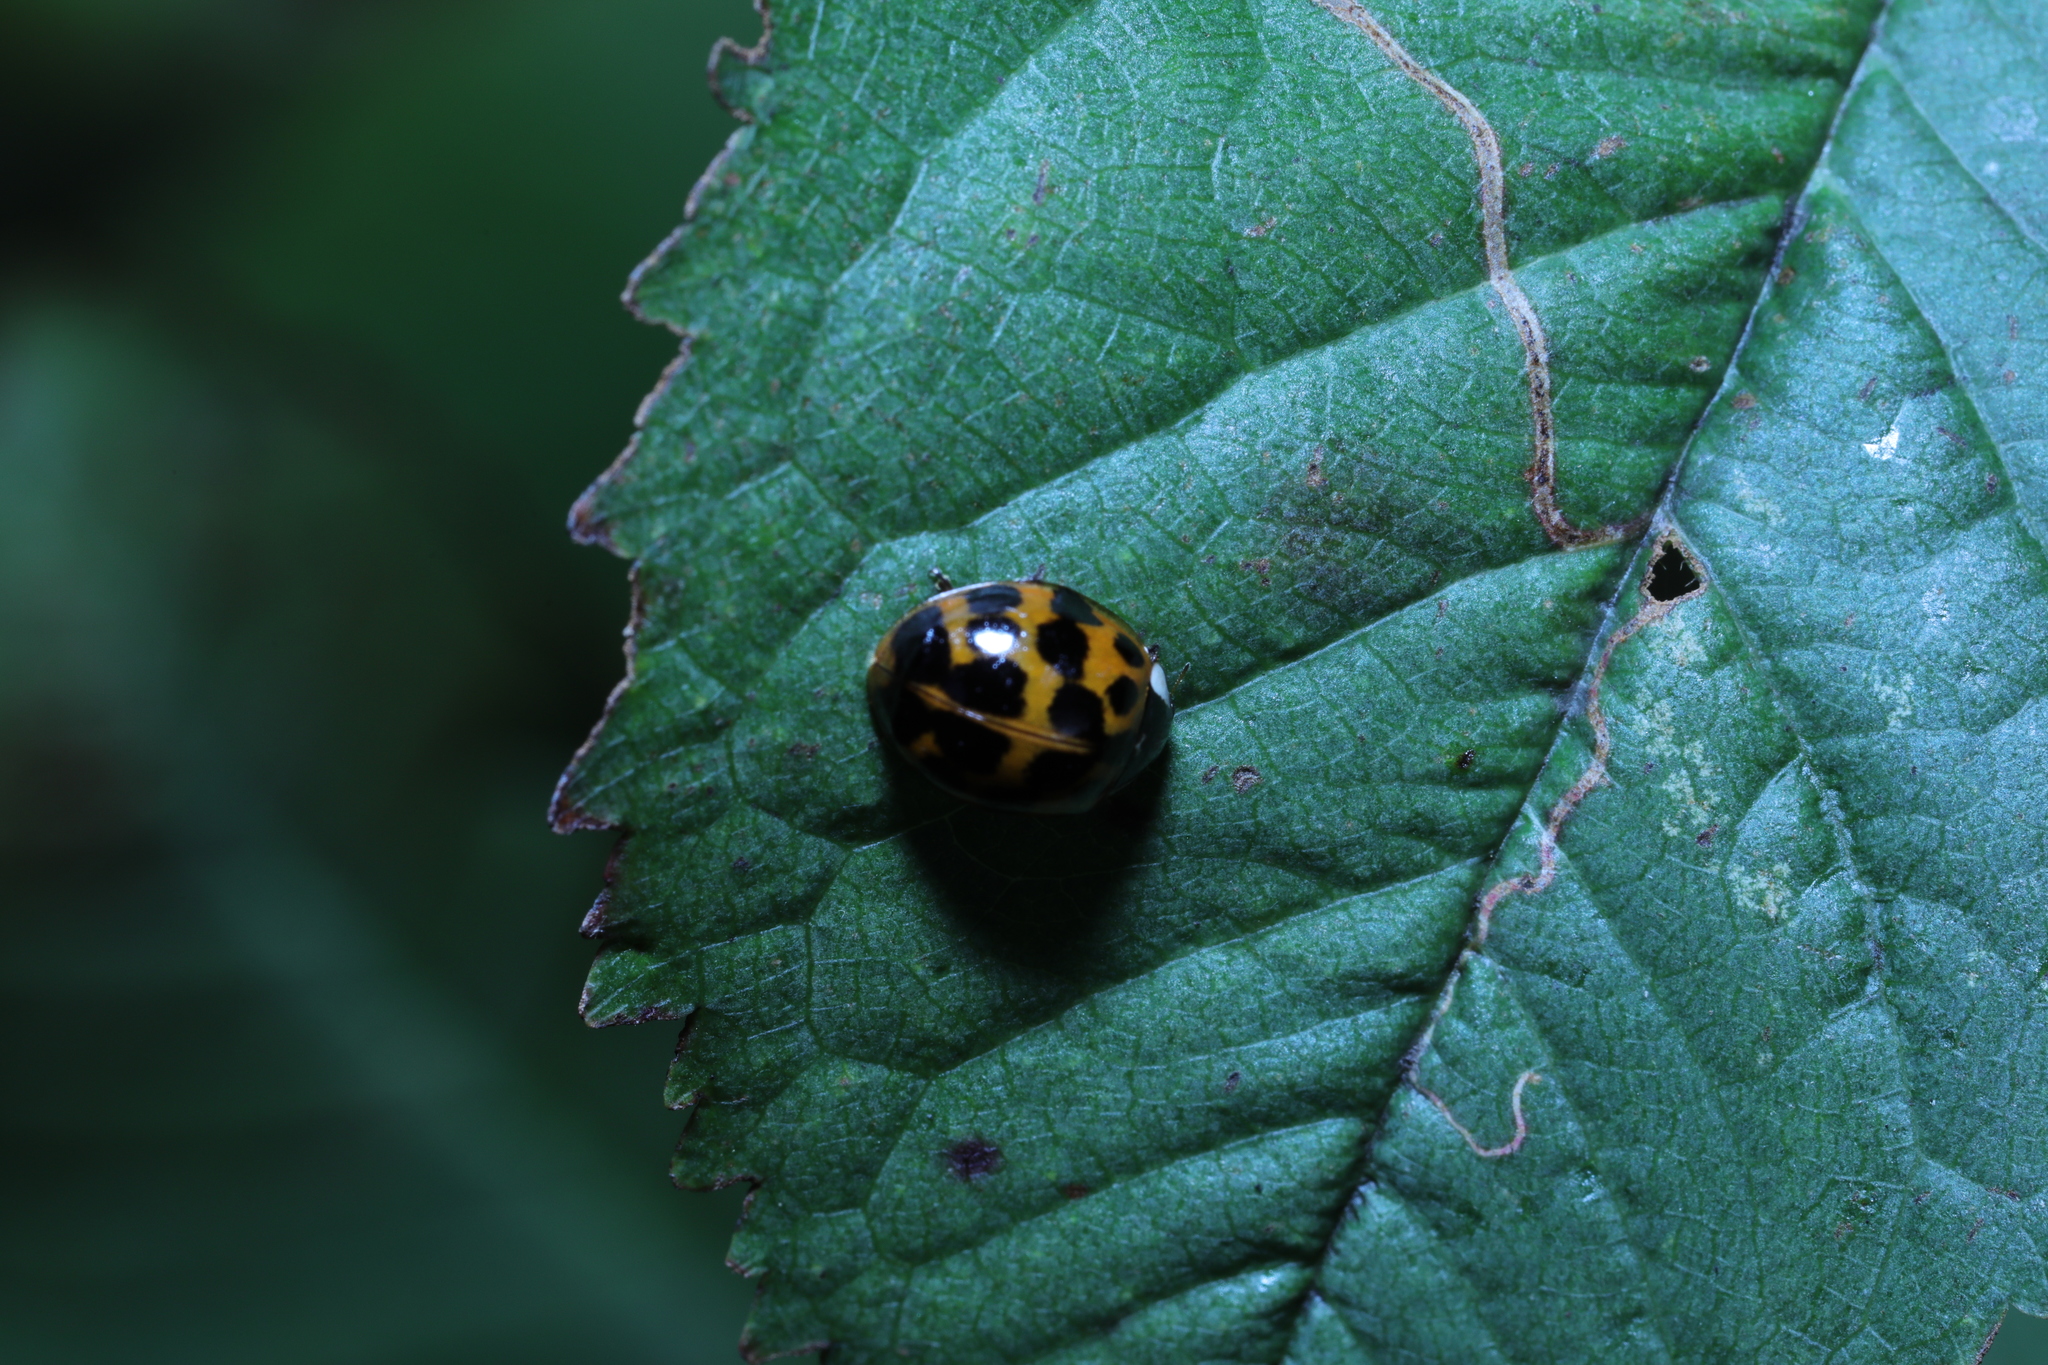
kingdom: Animalia
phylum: Arthropoda
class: Insecta
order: Coleoptera
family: Coccinellidae
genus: Harmonia
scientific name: Harmonia axyridis
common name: Harlequin ladybird
